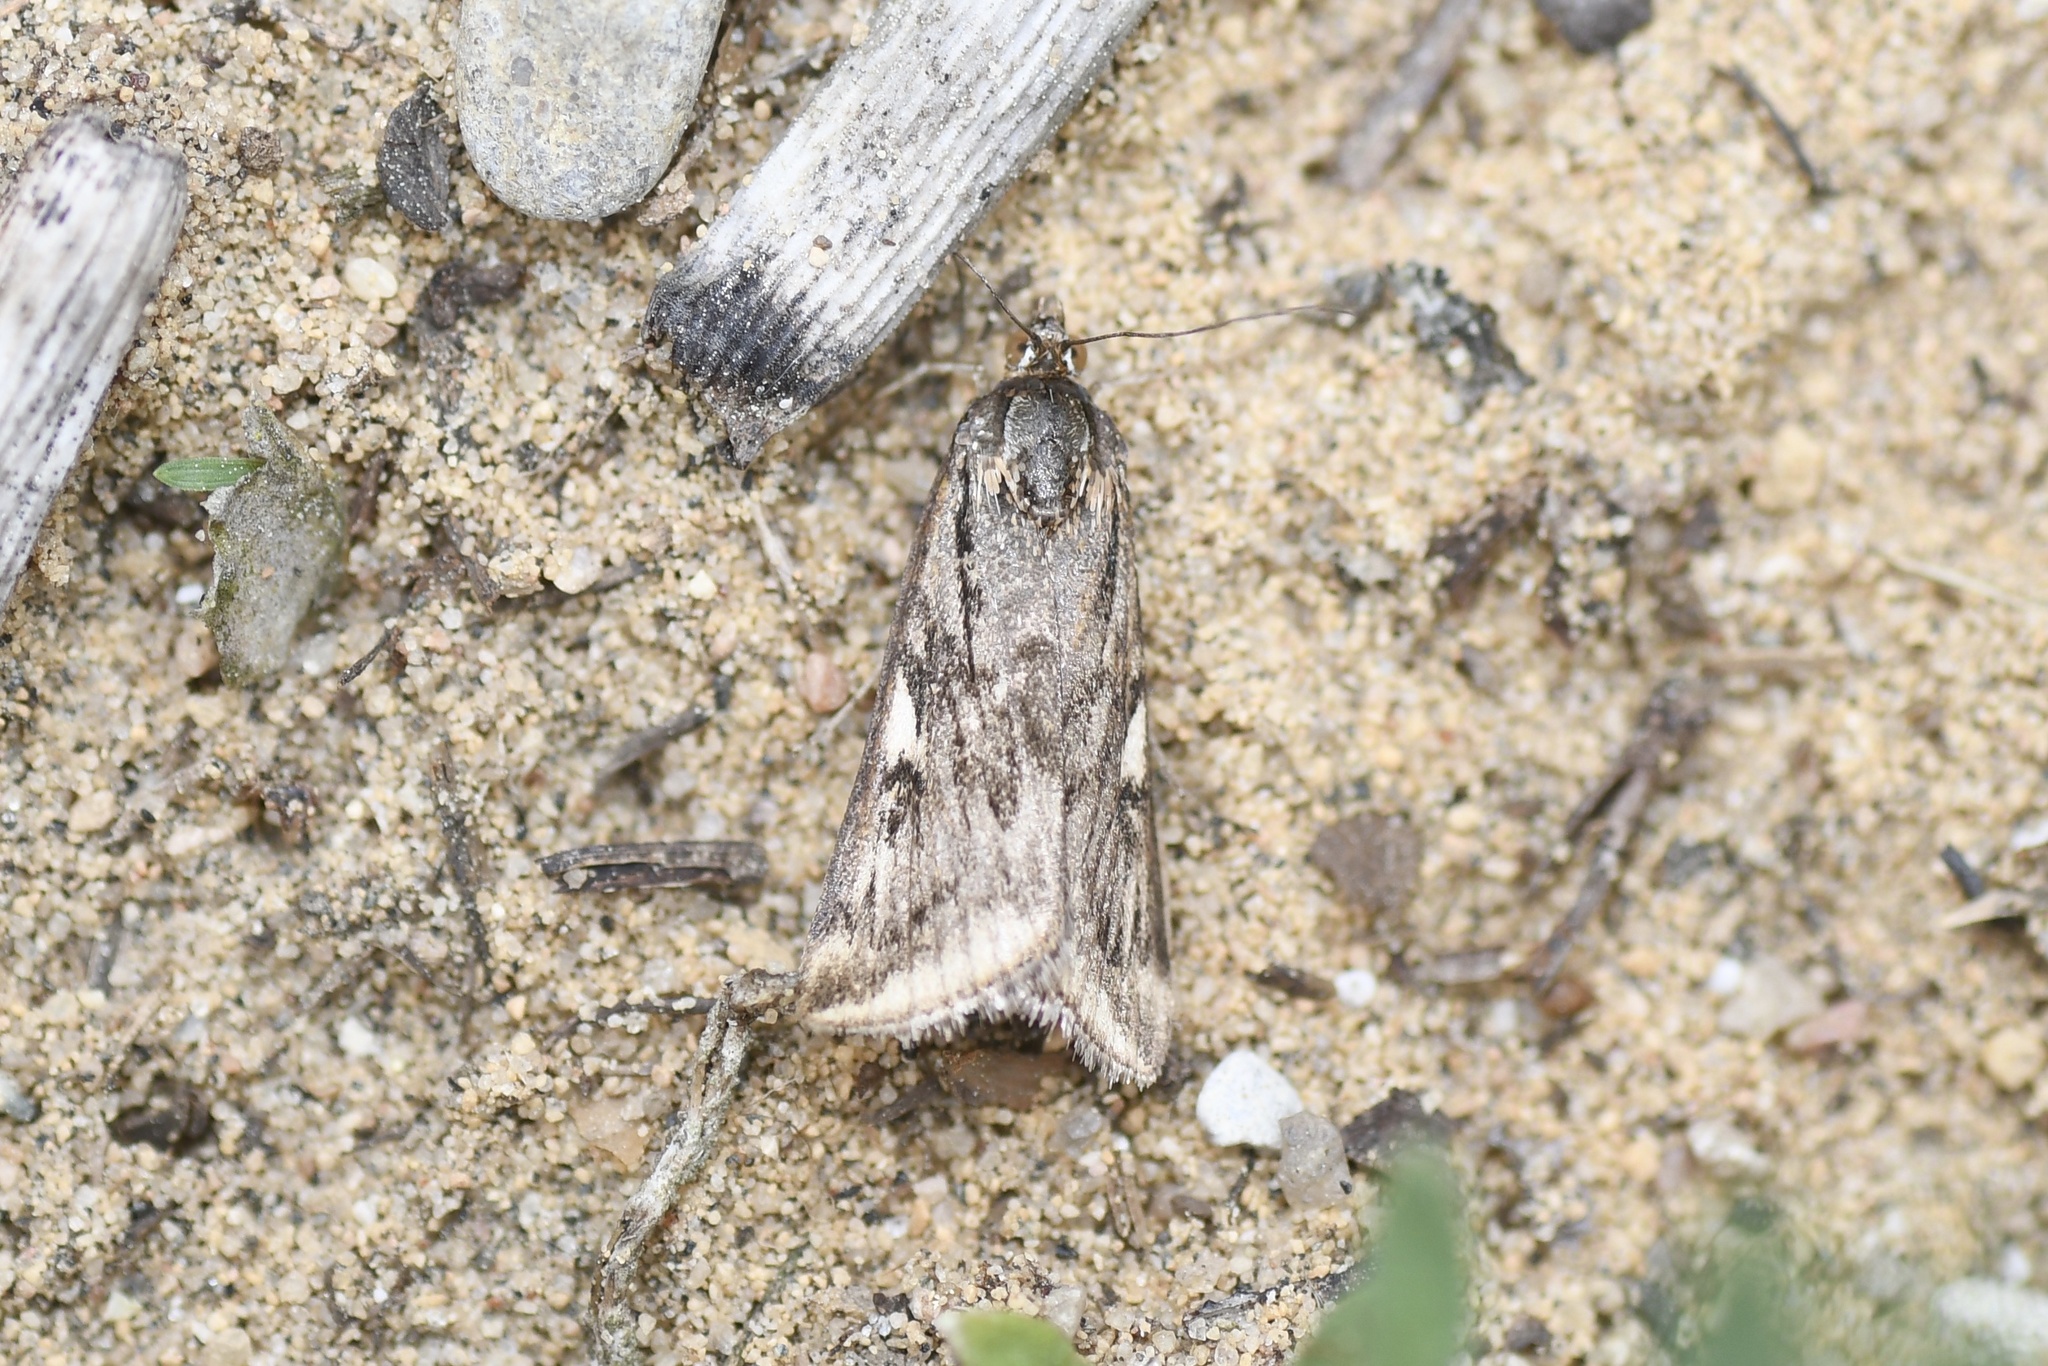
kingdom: Animalia
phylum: Arthropoda
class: Insecta
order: Lepidoptera
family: Crambidae
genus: Loxostege
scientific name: Loxostege cereralis
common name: Alfalfa webworm moth
